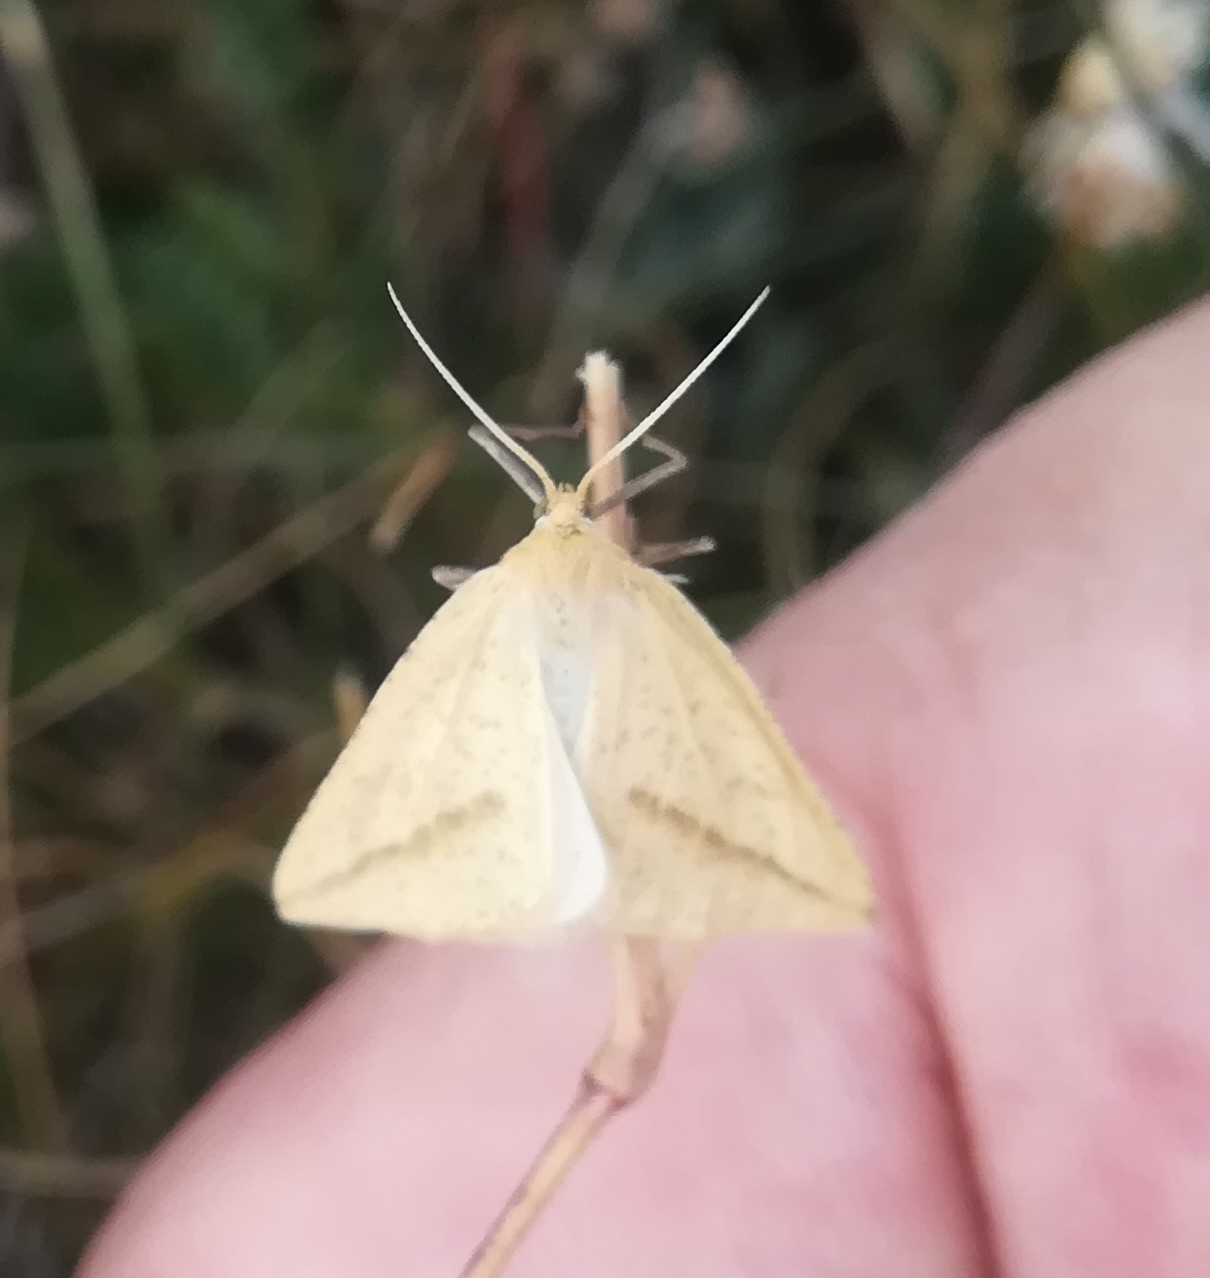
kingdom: Animalia
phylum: Arthropoda
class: Insecta
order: Lepidoptera
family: Geometridae
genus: Aspitates
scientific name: Aspitates gilvaria
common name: Straw belle
